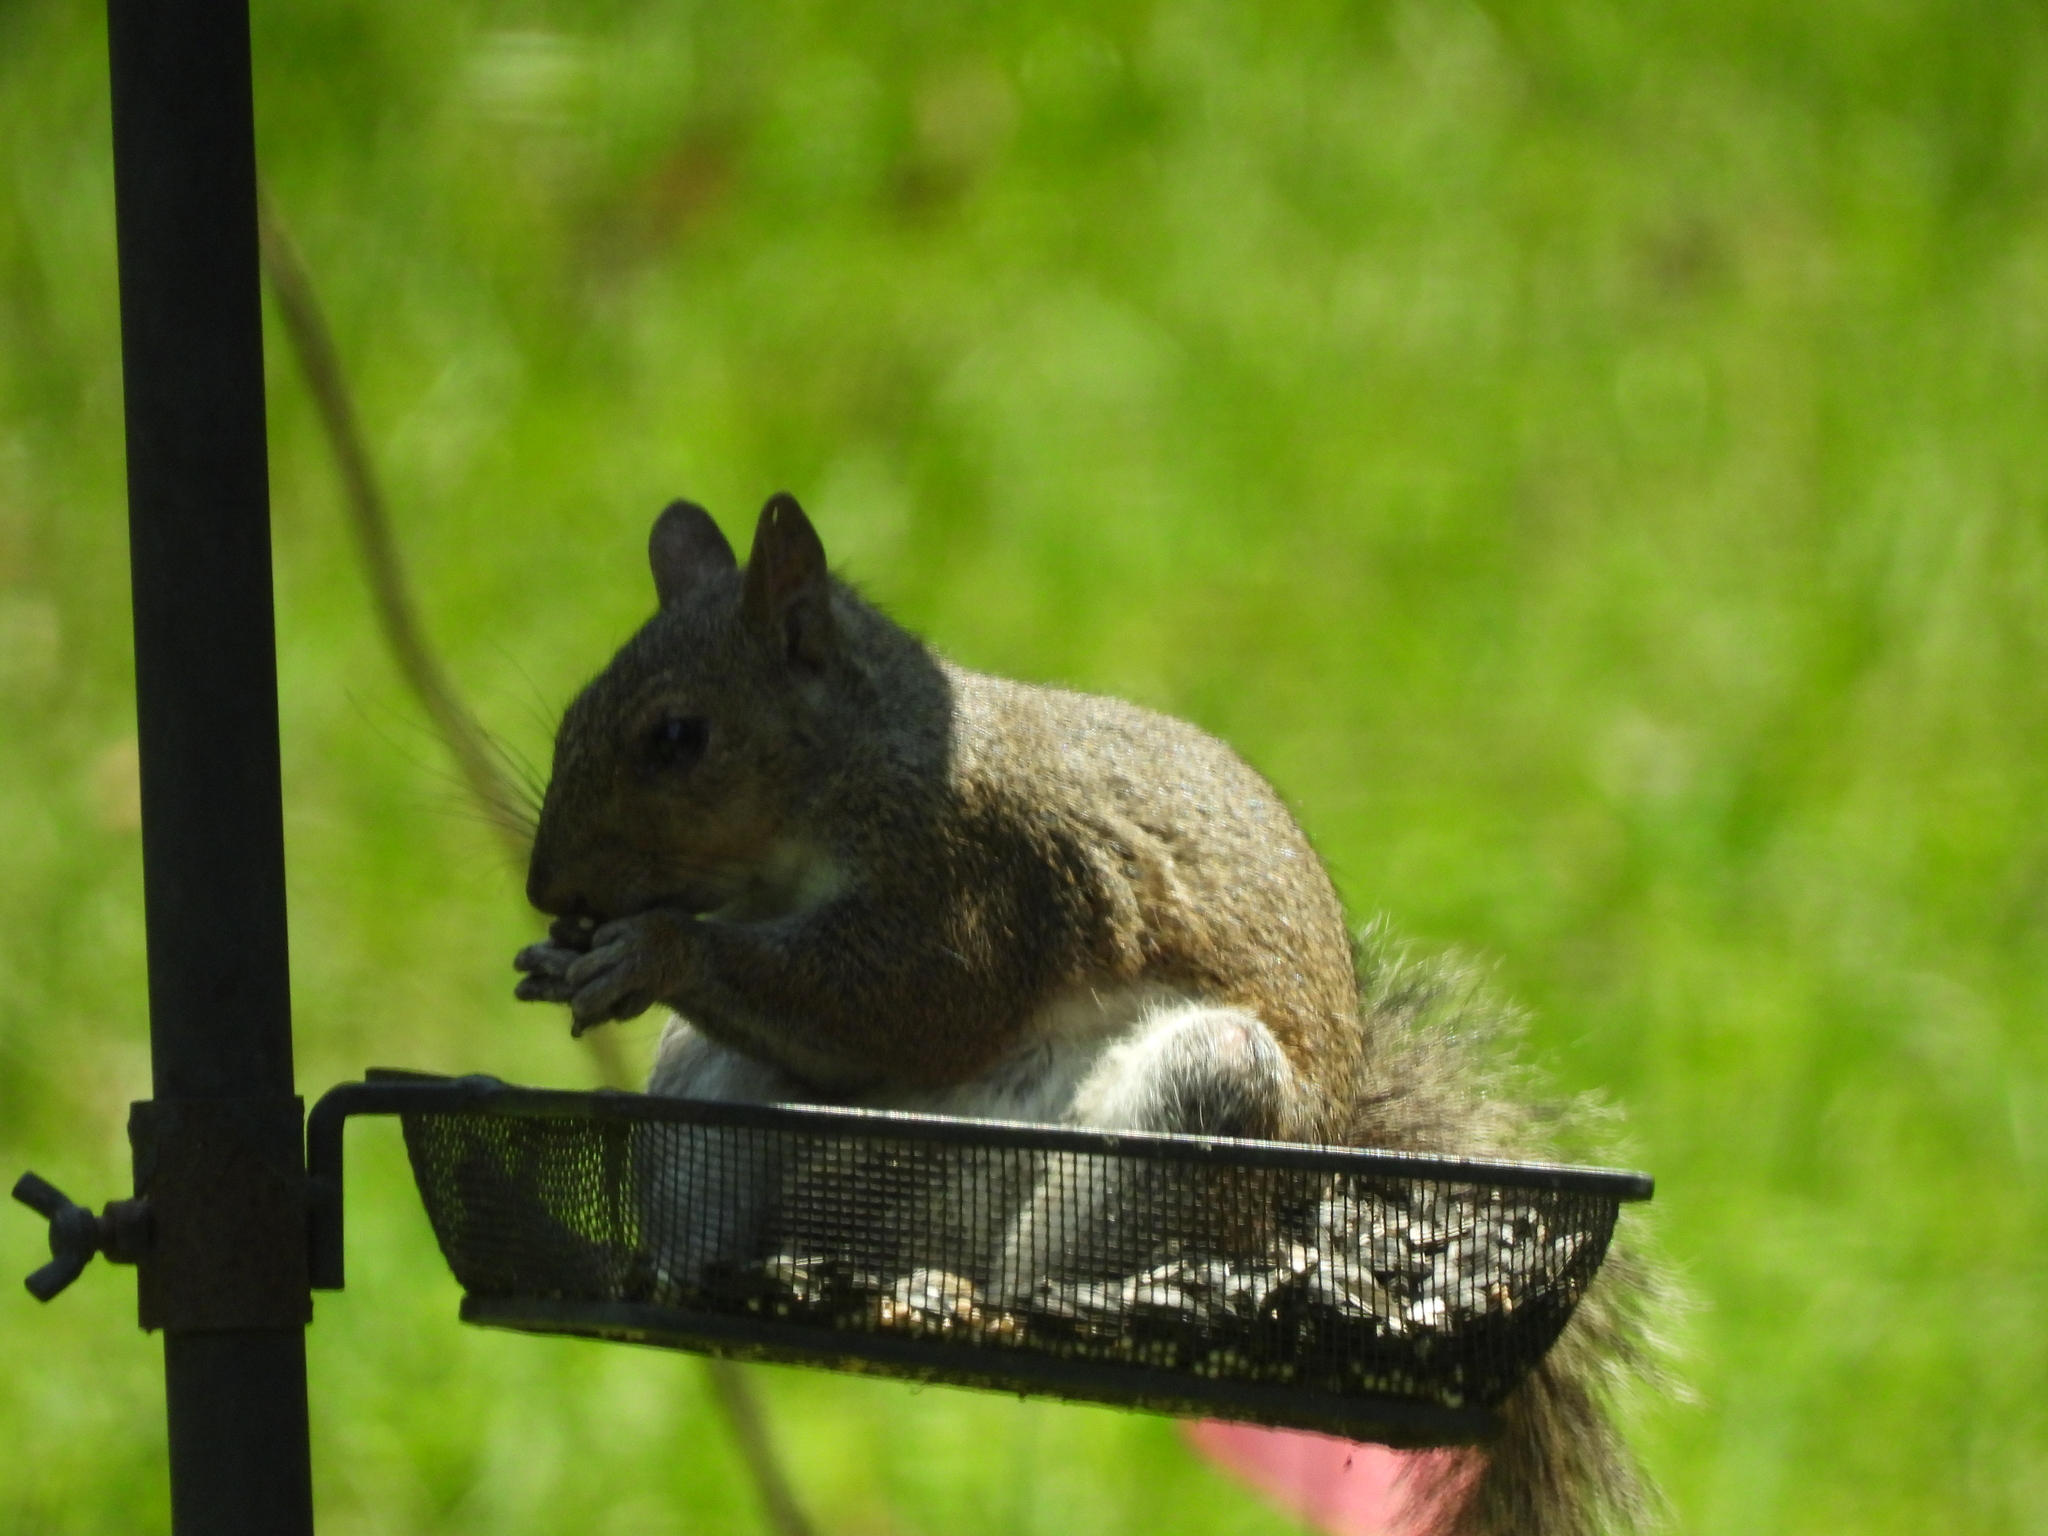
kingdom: Animalia
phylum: Chordata
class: Mammalia
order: Rodentia
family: Sciuridae
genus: Sciurus
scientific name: Sciurus carolinensis
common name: Eastern gray squirrel
